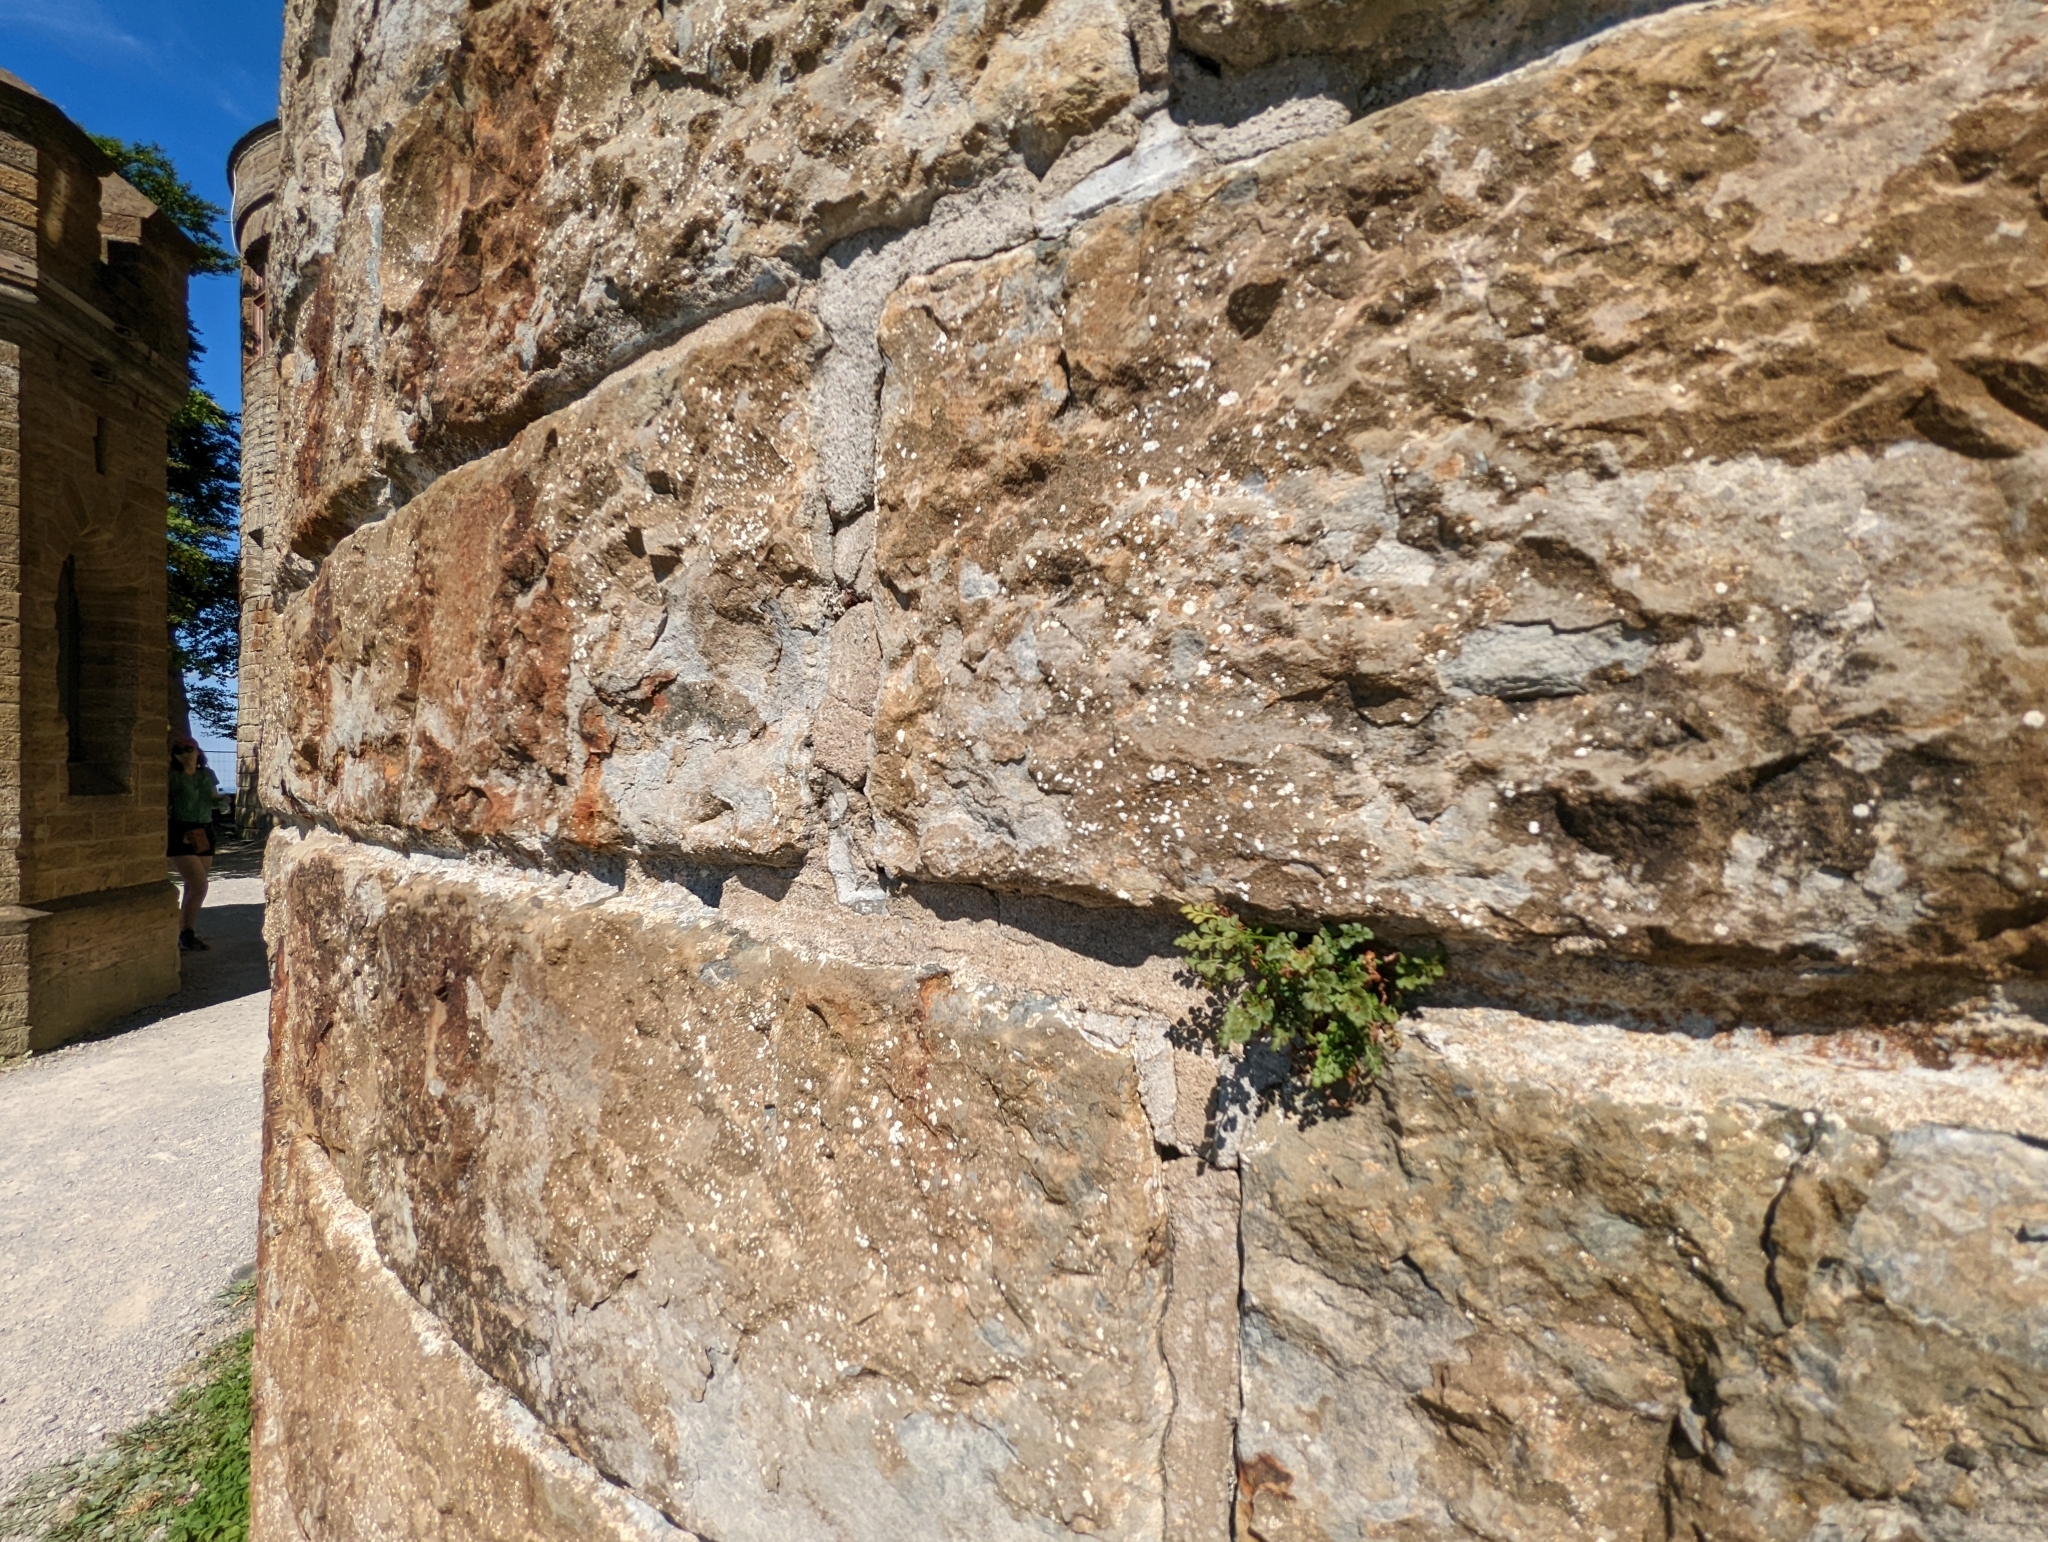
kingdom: Plantae
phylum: Tracheophyta
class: Polypodiopsida
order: Polypodiales
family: Aspleniaceae
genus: Asplenium
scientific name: Asplenium ruta-muraria
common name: Wall-rue
